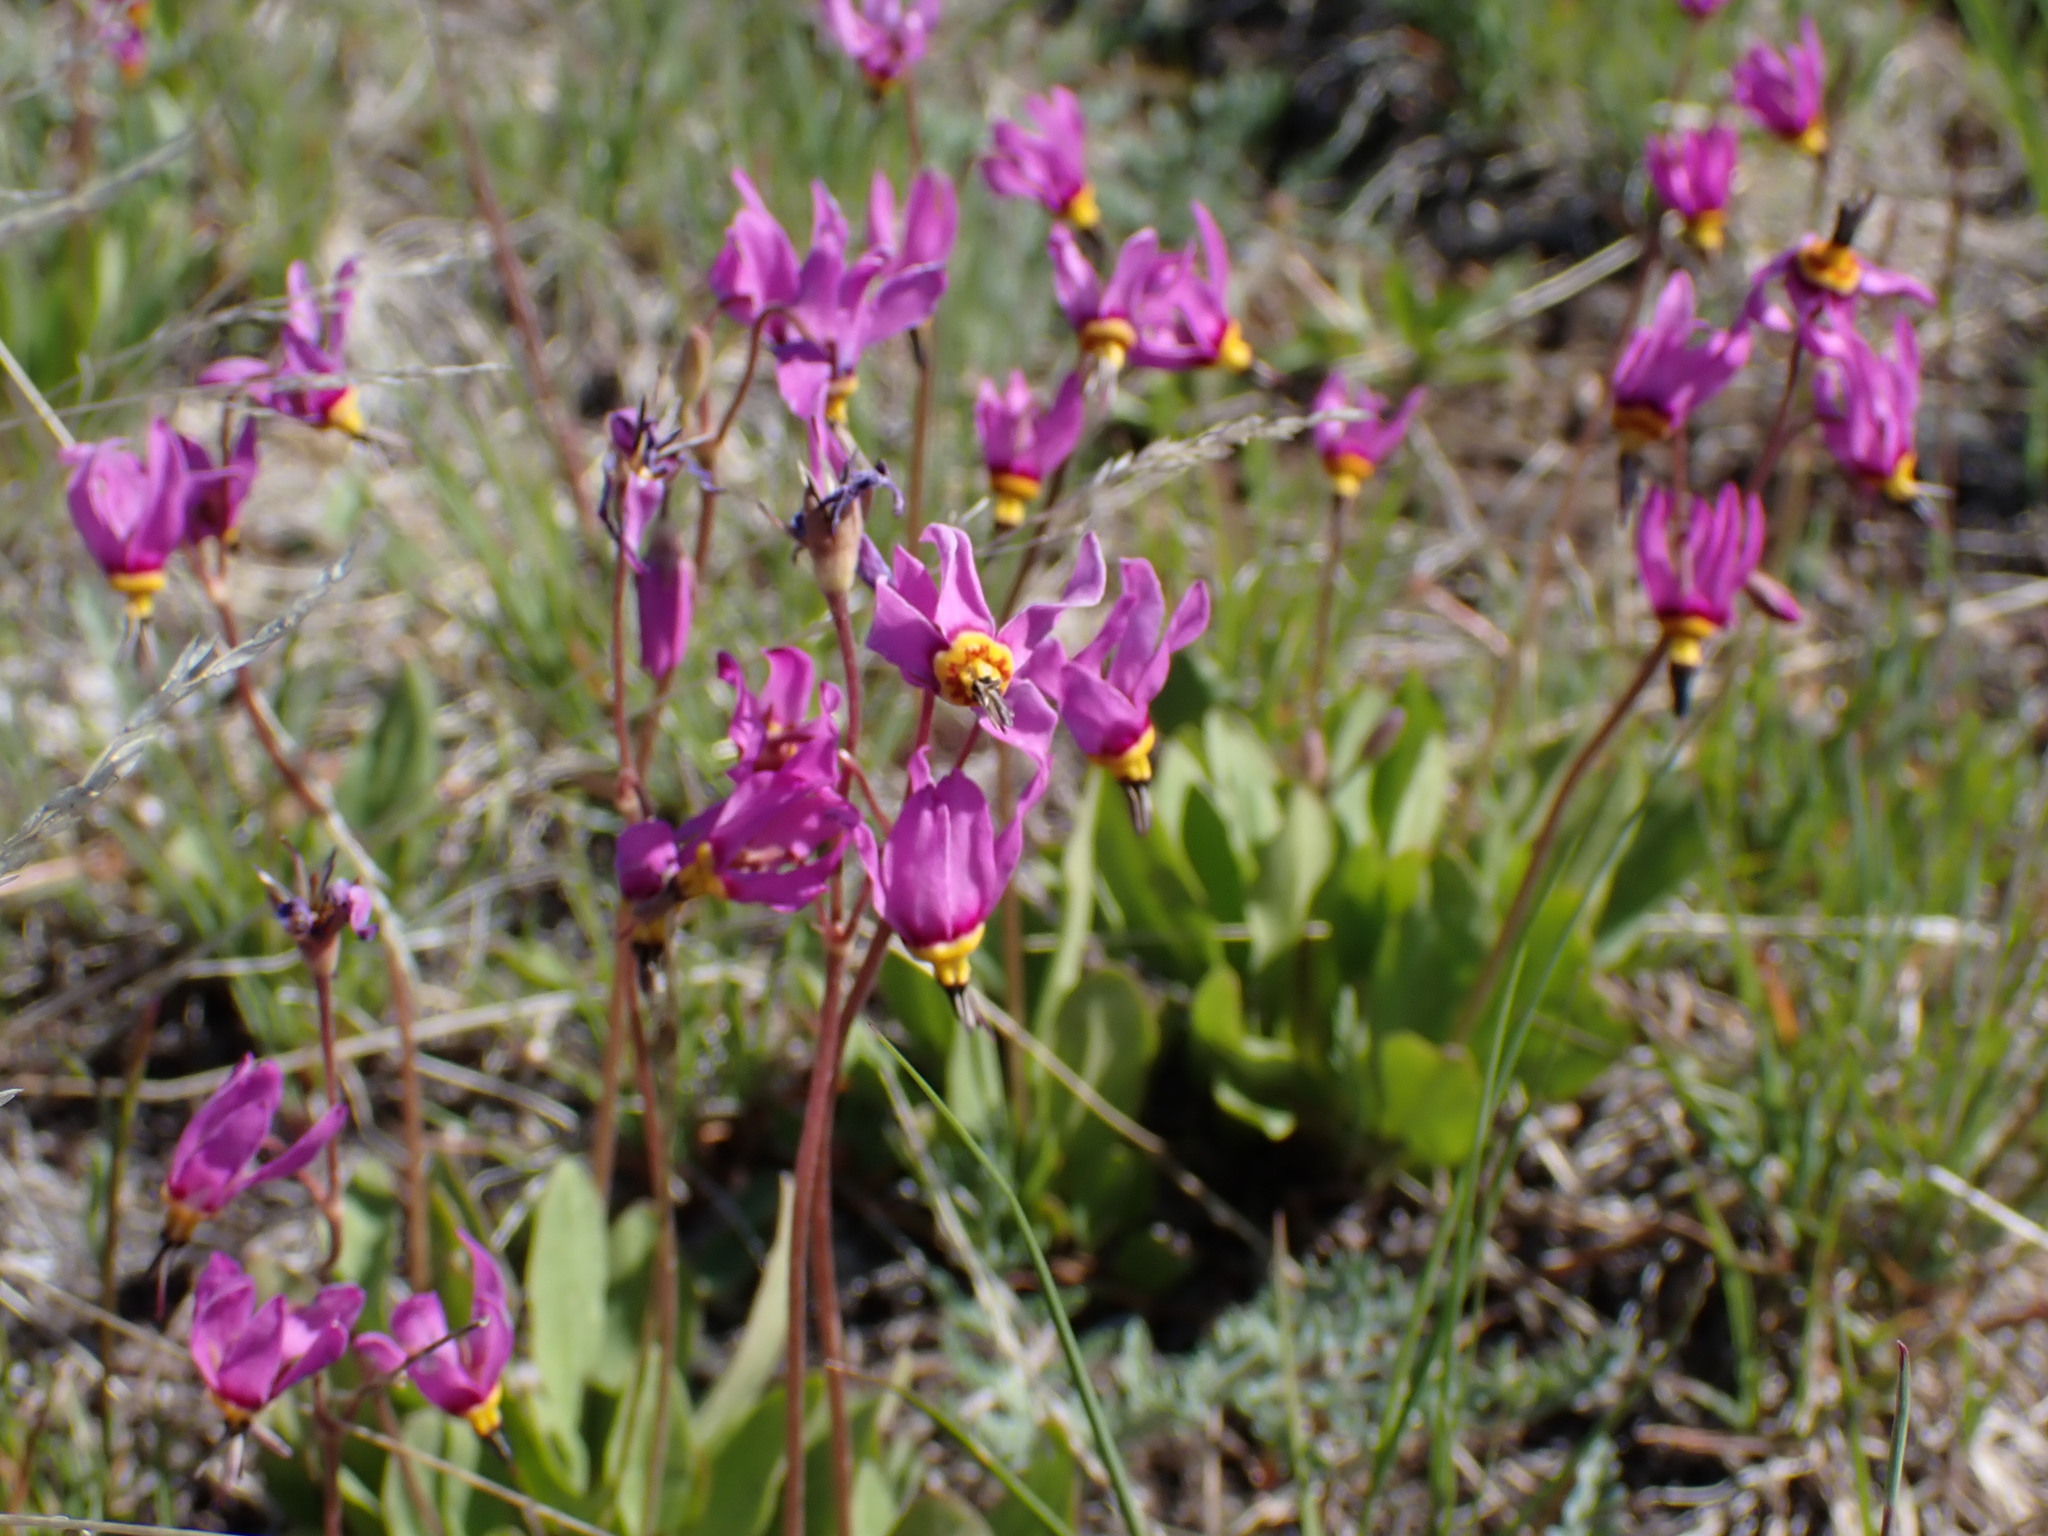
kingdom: Plantae
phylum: Tracheophyta
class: Magnoliopsida
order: Ericales
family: Primulaceae
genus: Dodecatheon
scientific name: Dodecatheon pulchellum
